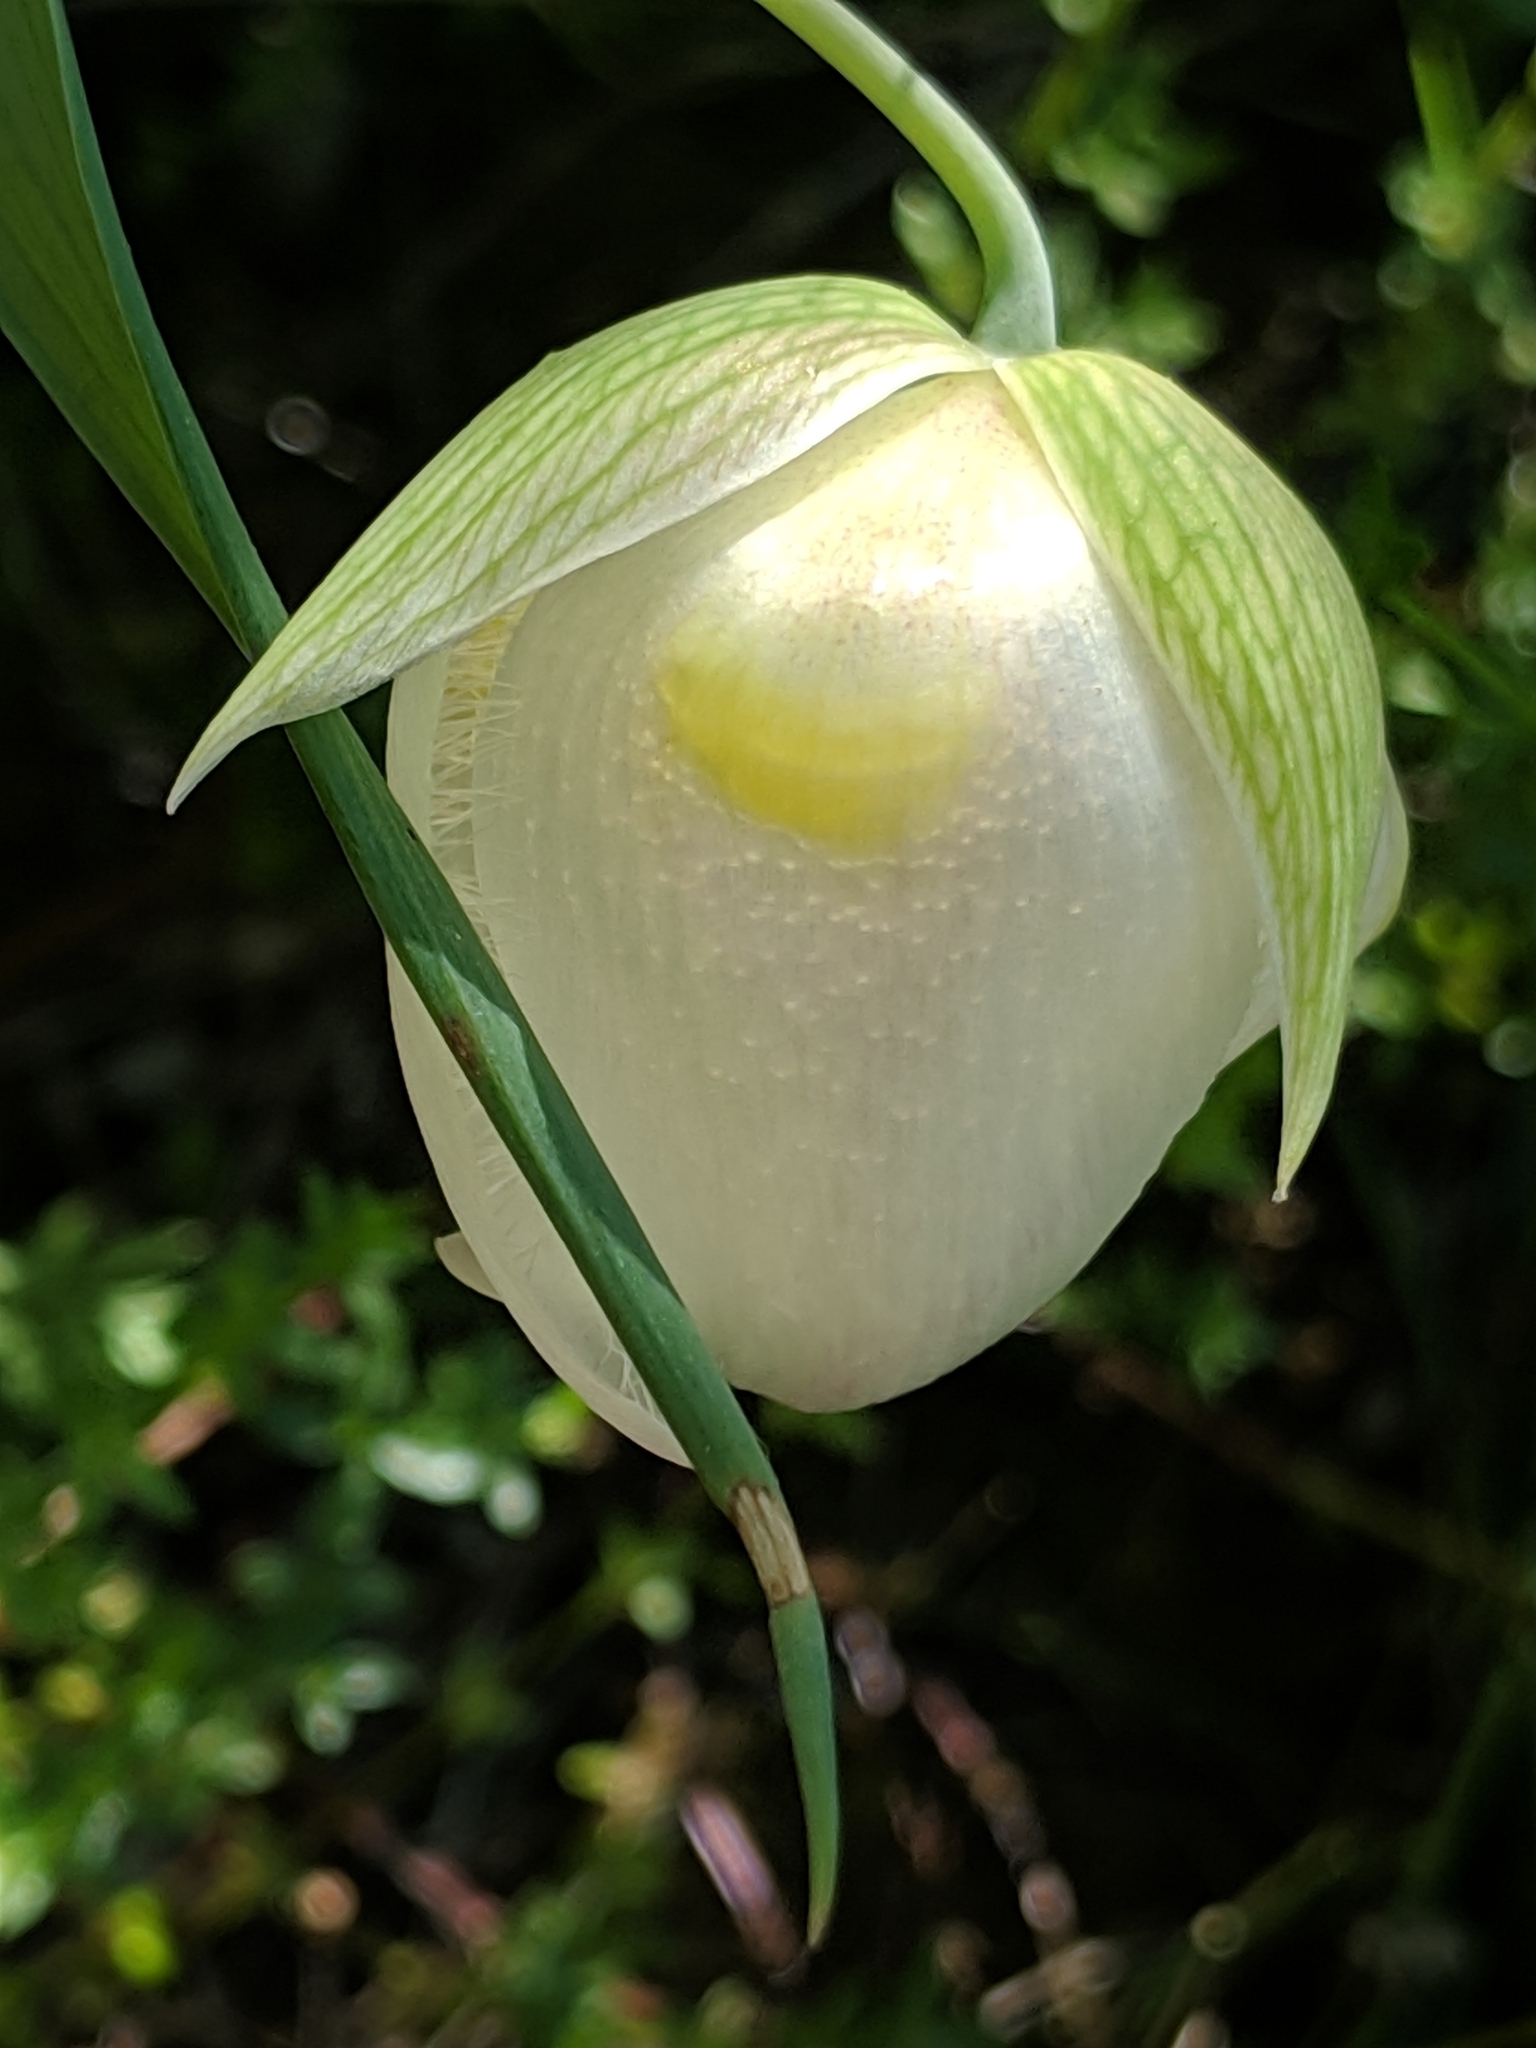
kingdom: Plantae
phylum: Tracheophyta
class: Liliopsida
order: Liliales
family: Liliaceae
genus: Calochortus
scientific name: Calochortus albus
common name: Fairy-lantern
